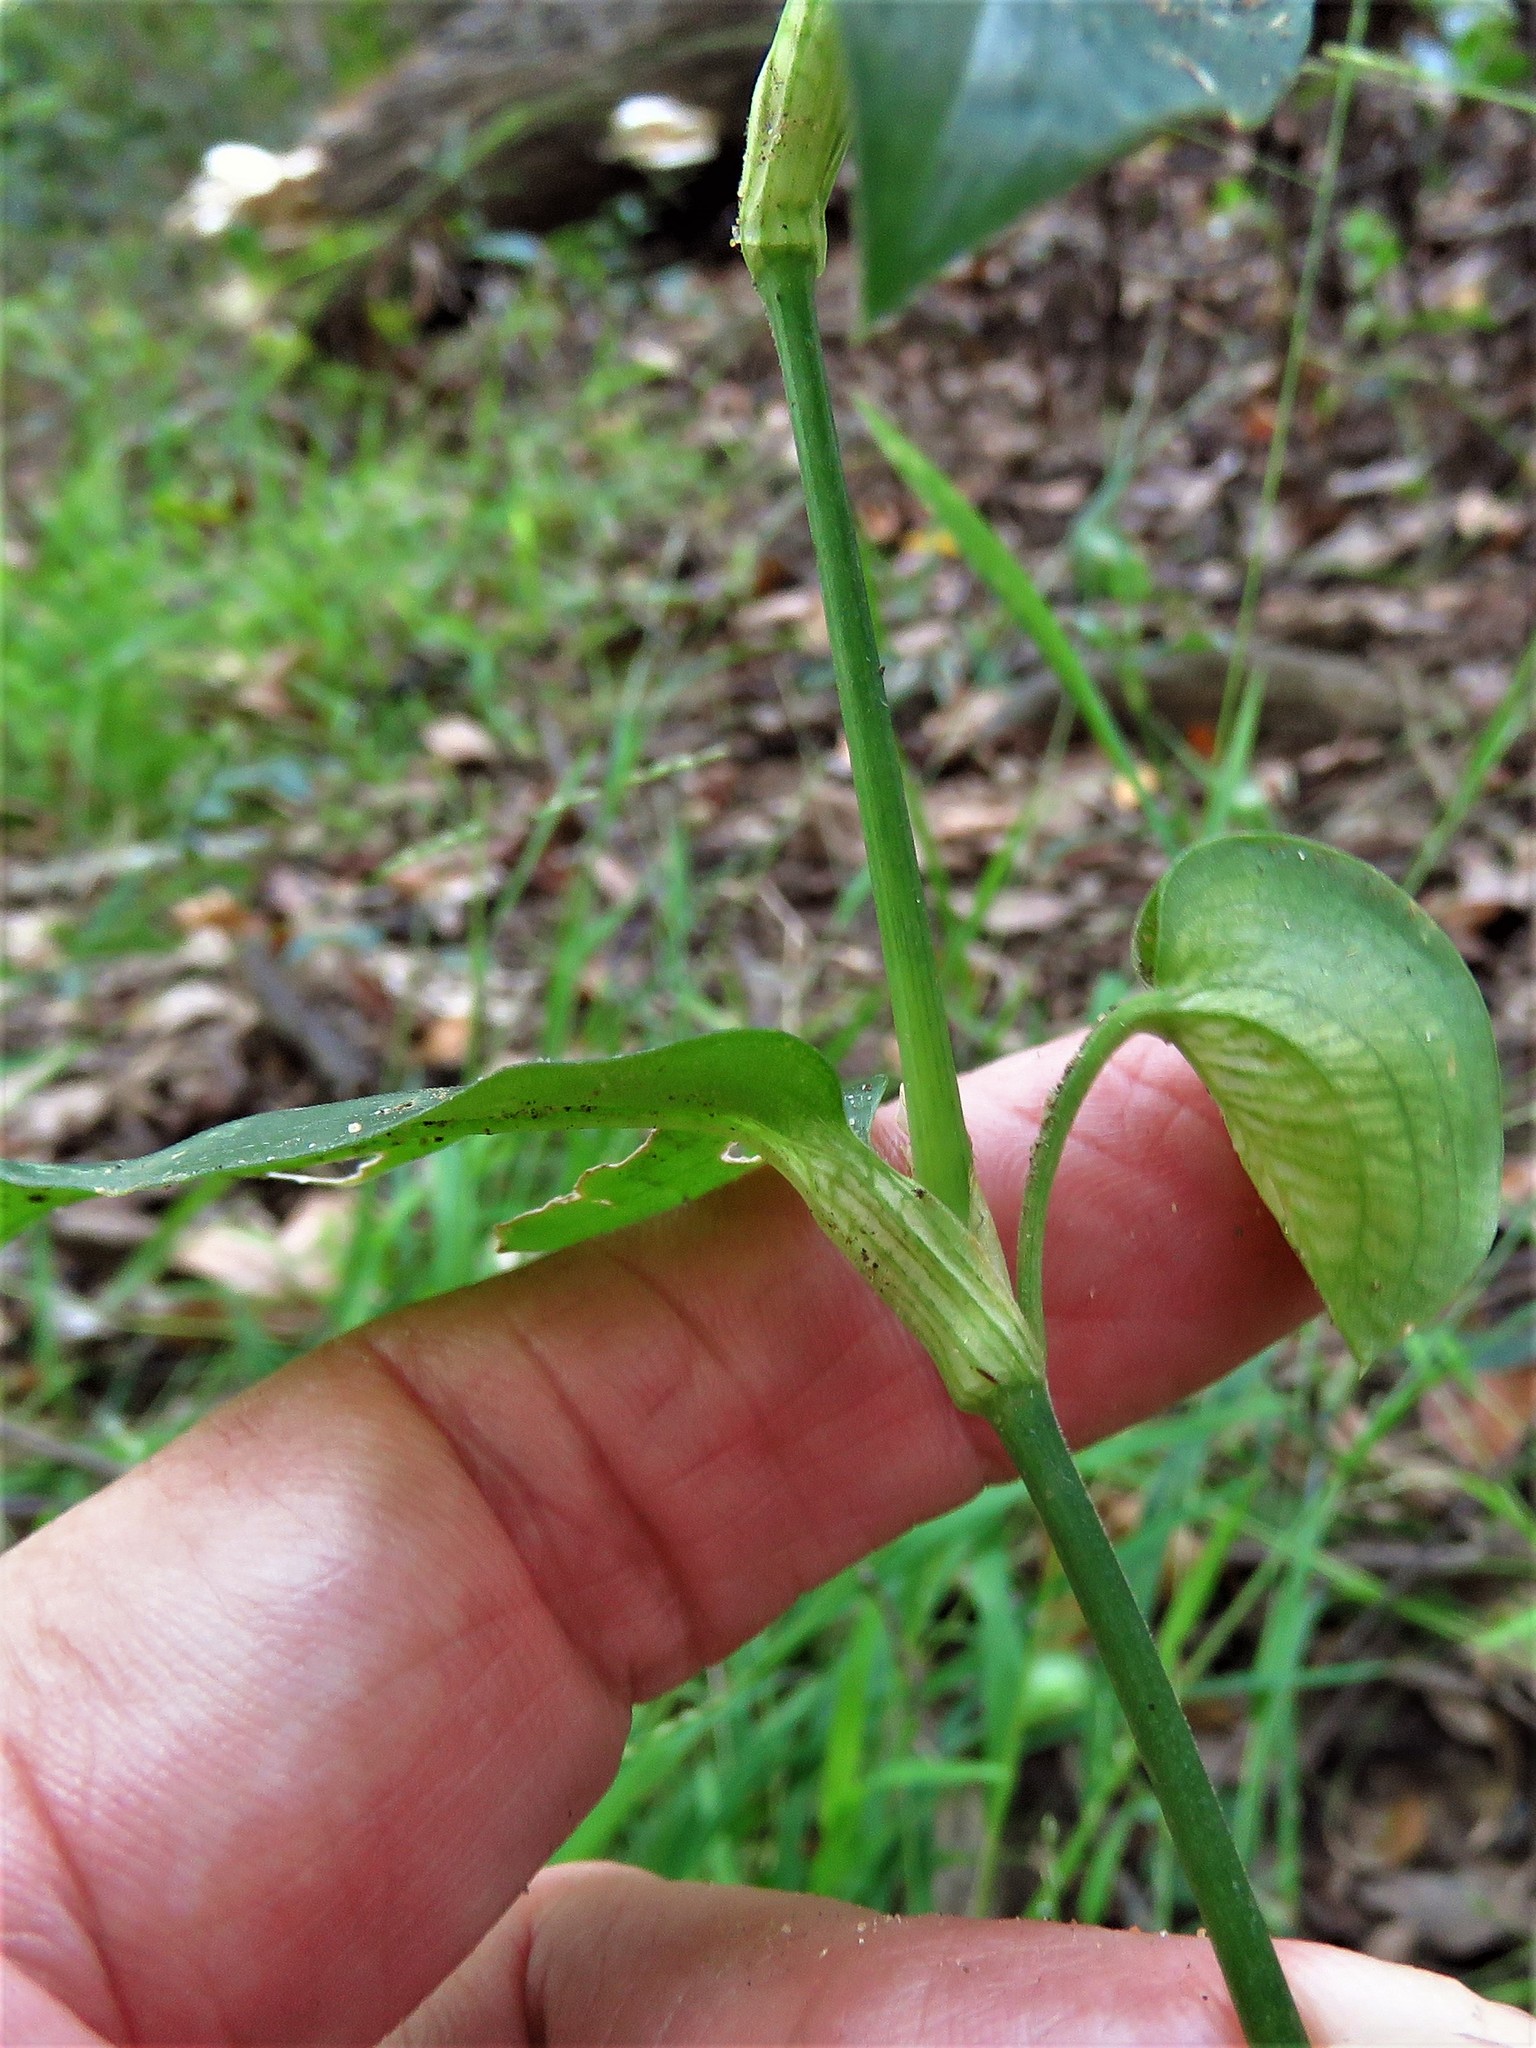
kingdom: Plantae
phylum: Tracheophyta
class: Liliopsida
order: Commelinales
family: Commelinaceae
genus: Commelina
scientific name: Commelina communis
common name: Asiatic dayflower
